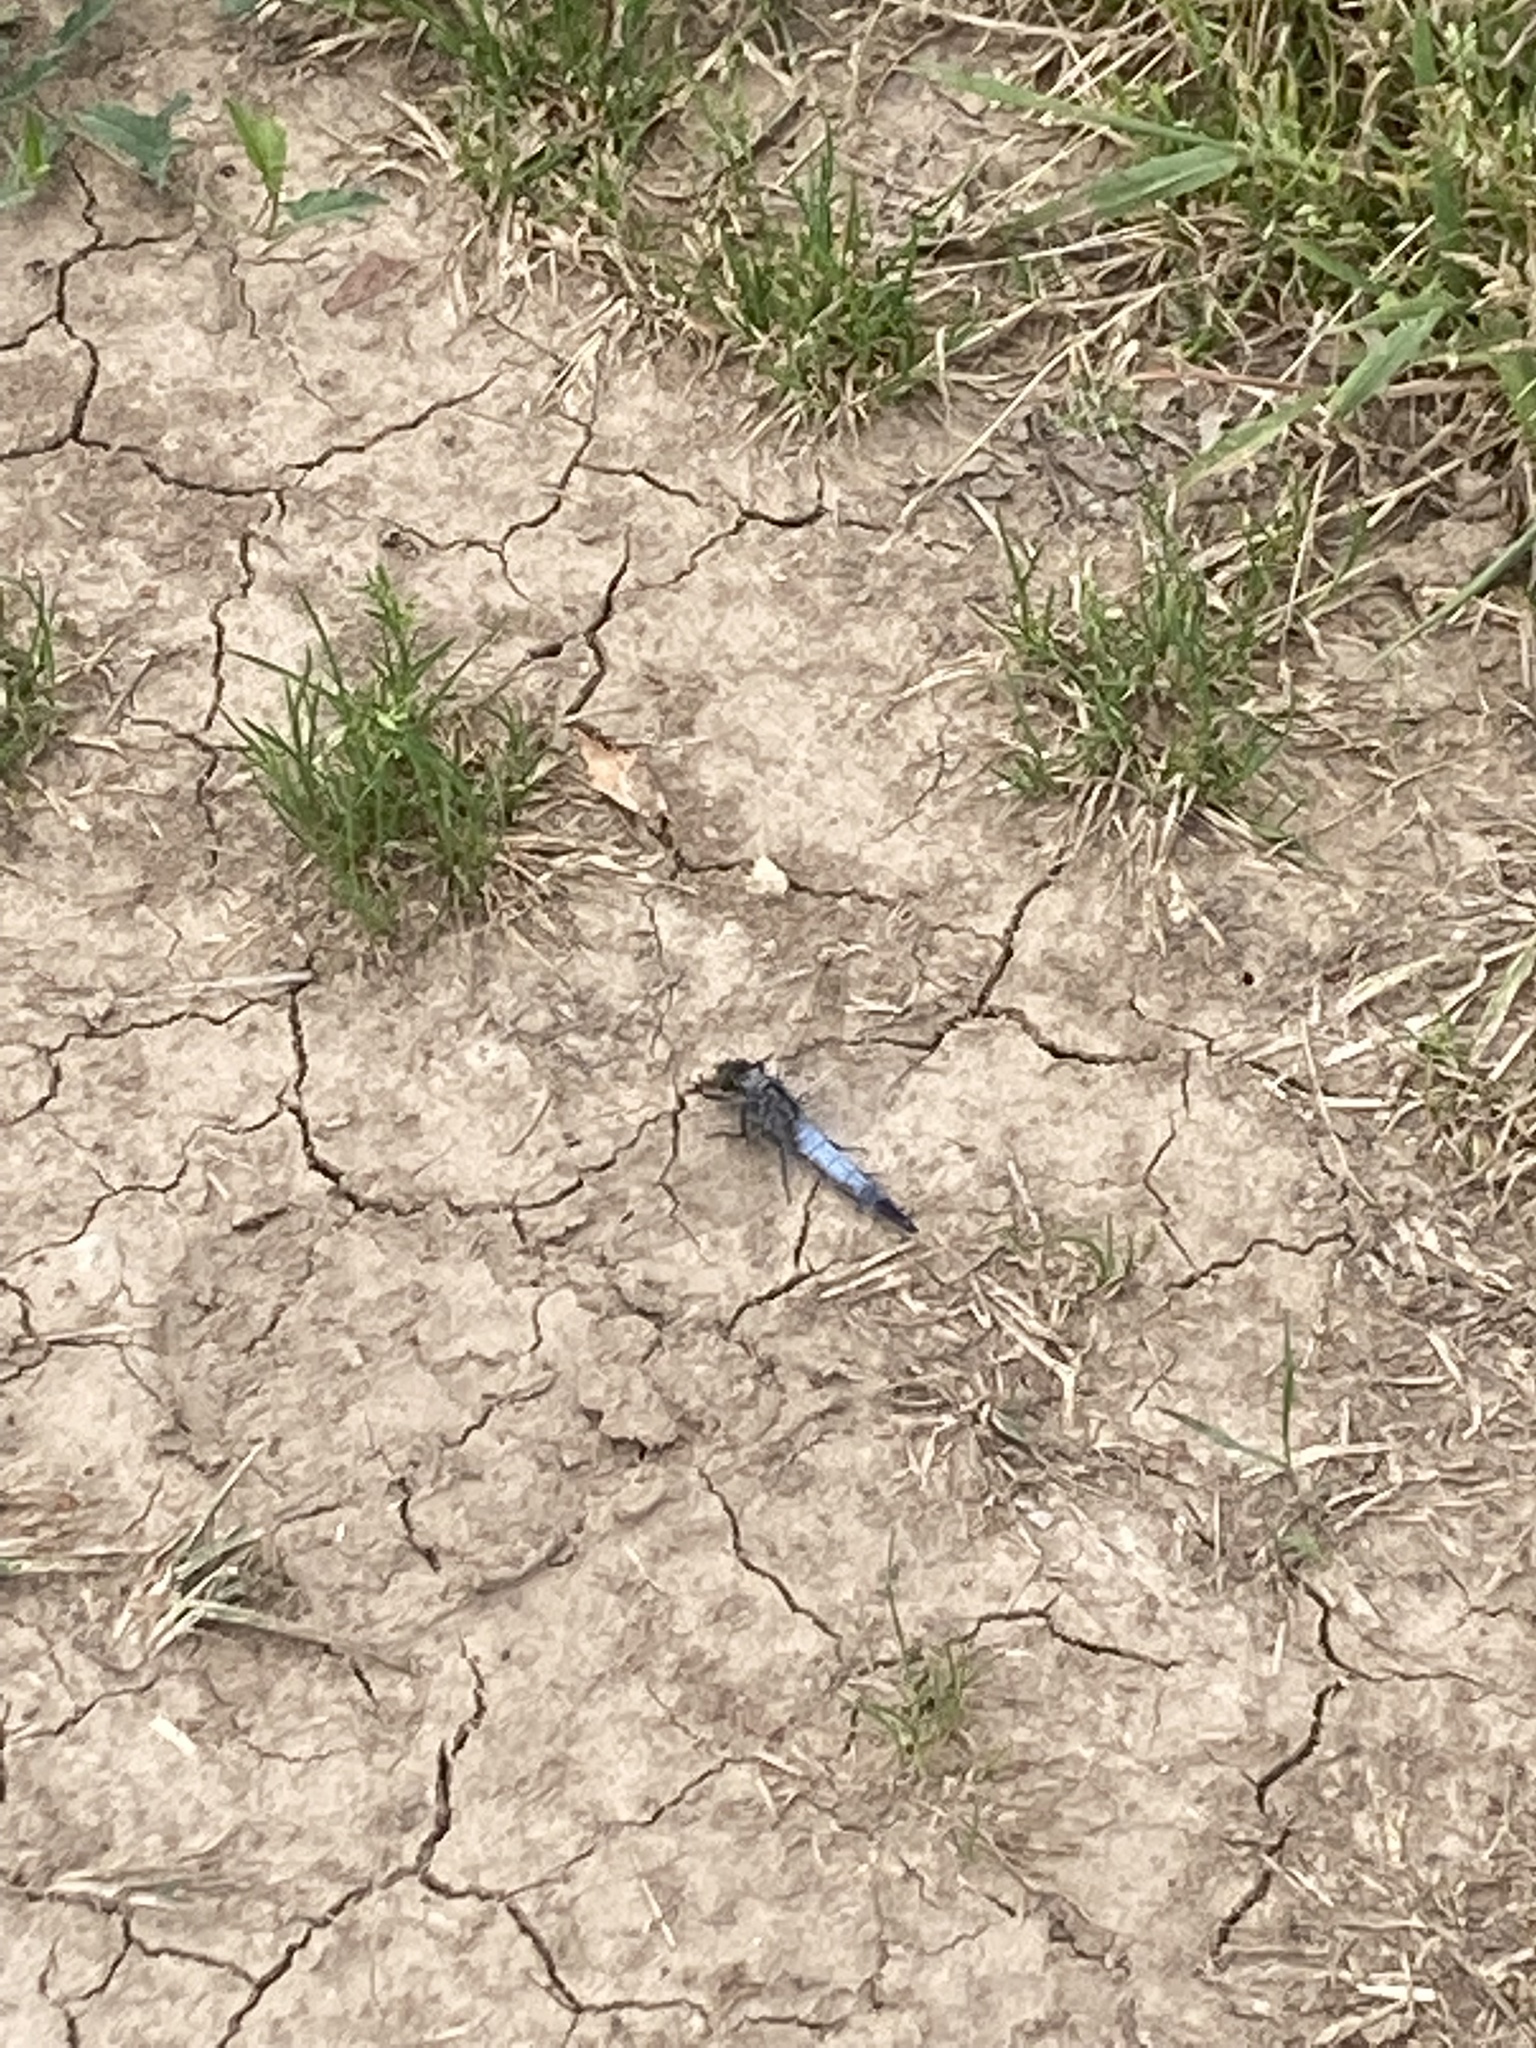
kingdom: Animalia
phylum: Arthropoda
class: Insecta
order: Odonata
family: Libellulidae
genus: Orthetrum
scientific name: Orthetrum cancellatum
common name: Black-tailed skimmer
